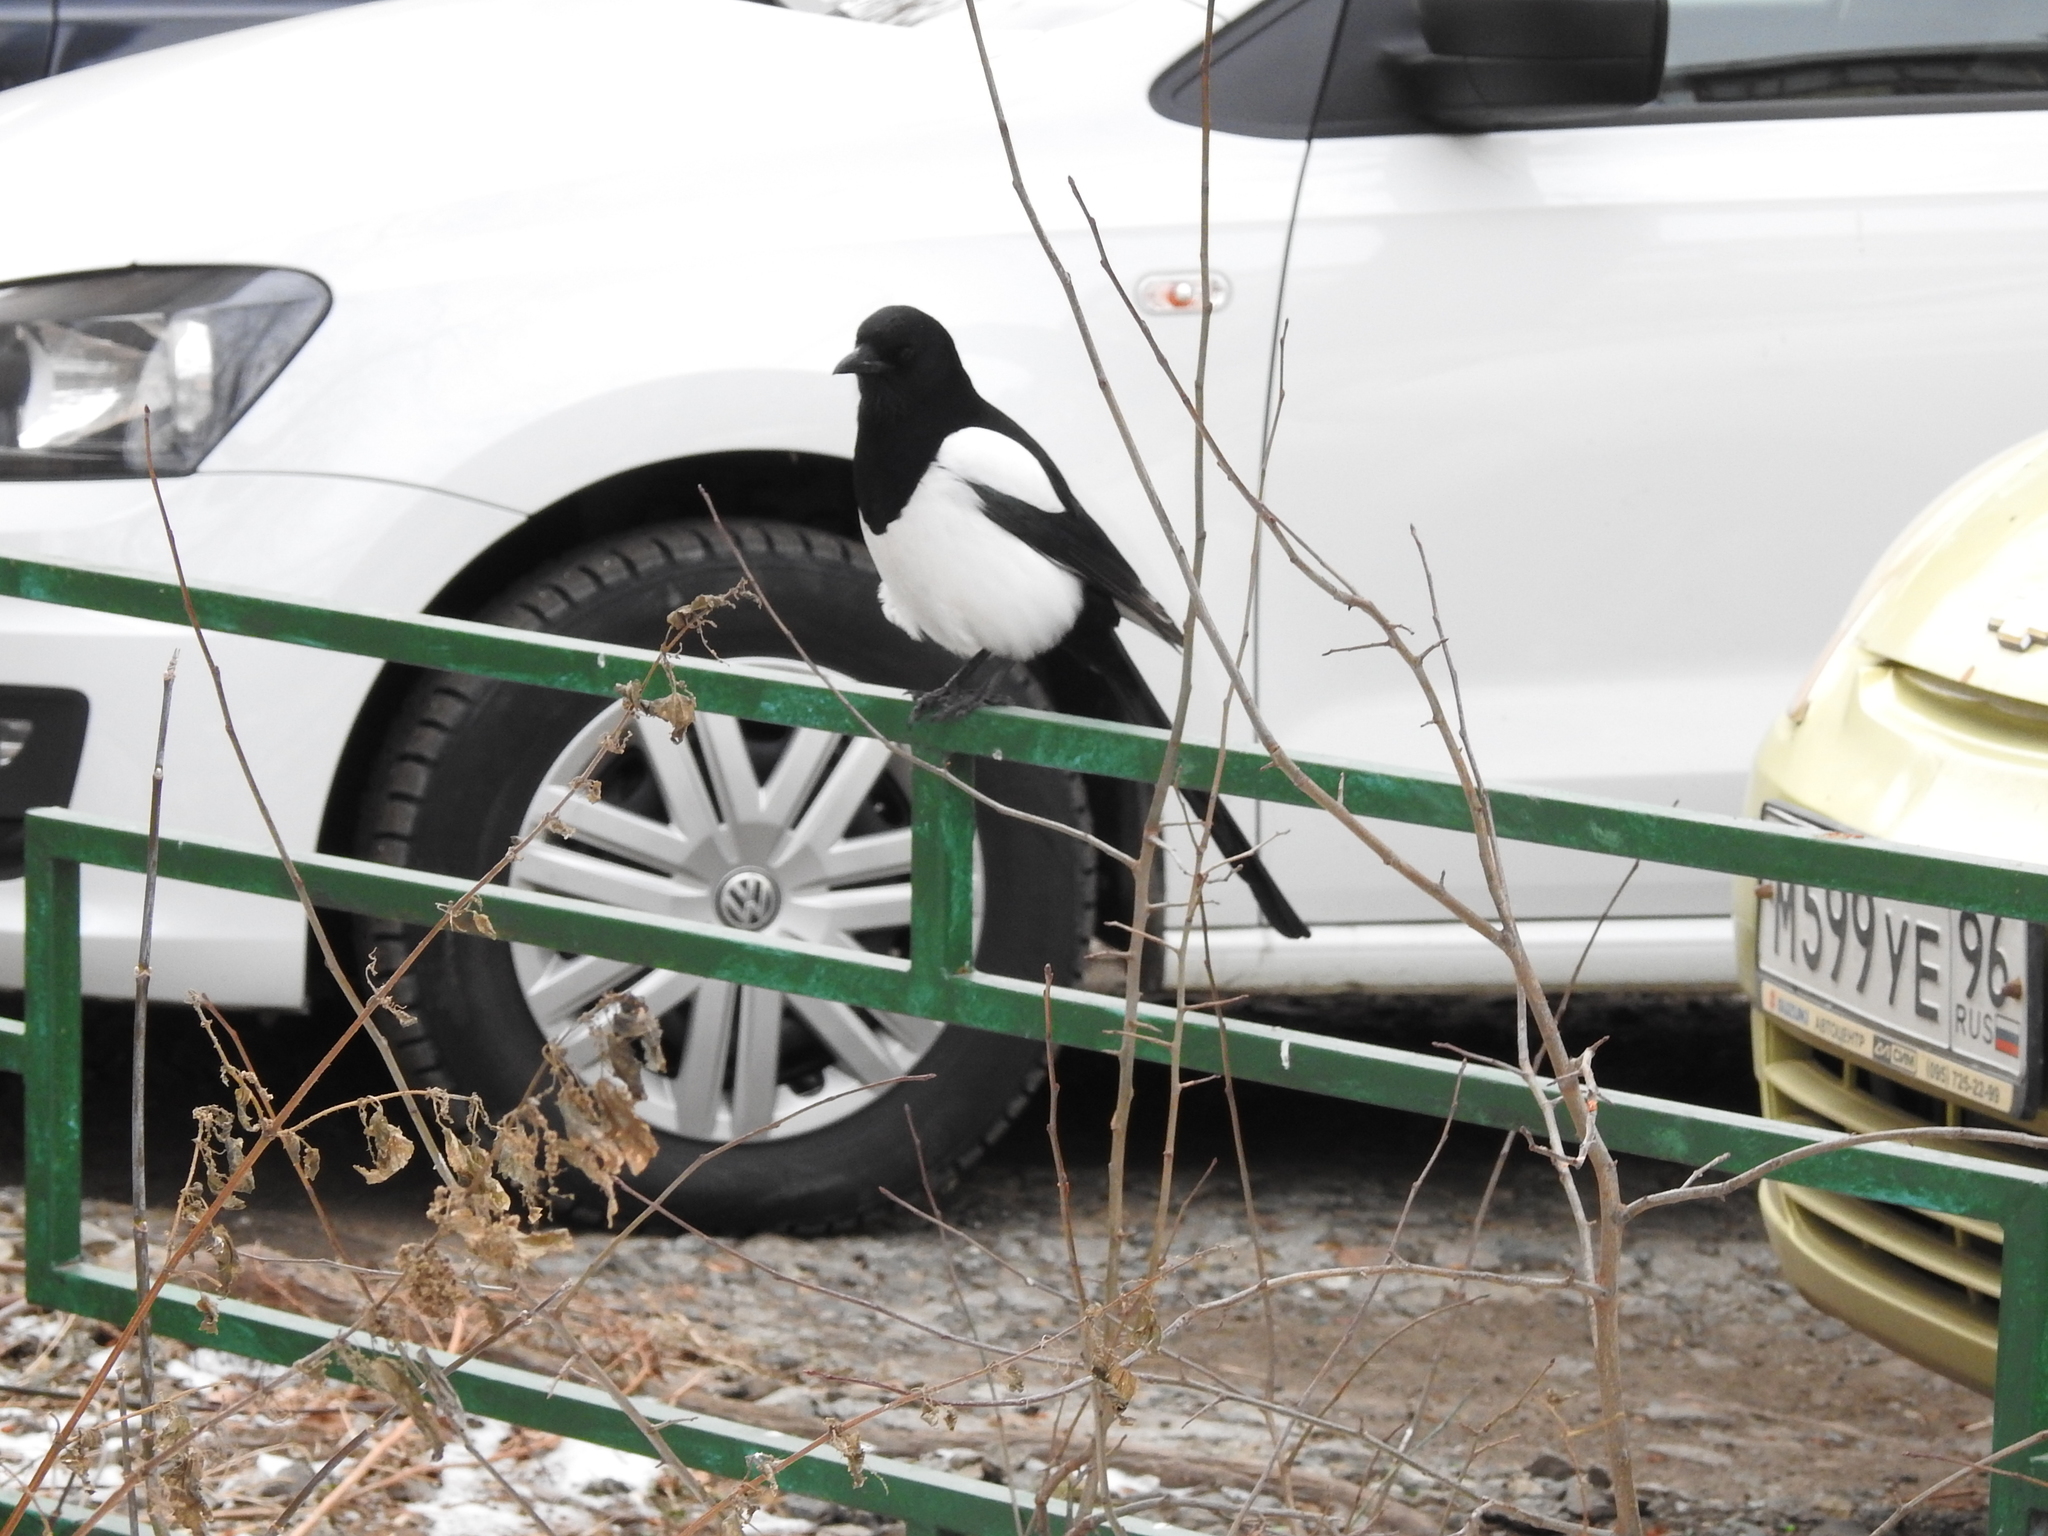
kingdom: Animalia
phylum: Chordata
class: Aves
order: Passeriformes
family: Corvidae
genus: Pica
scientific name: Pica pica
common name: Eurasian magpie
